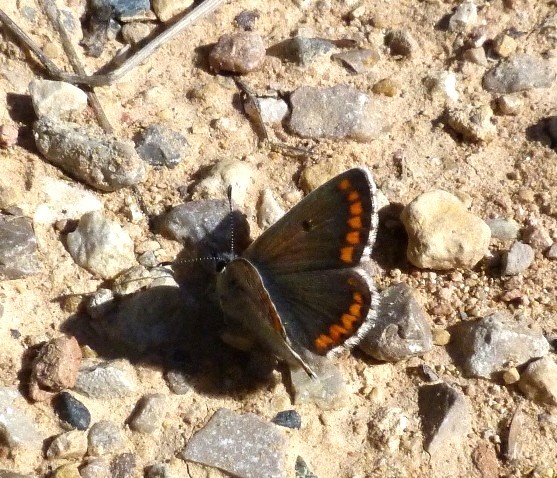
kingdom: Animalia
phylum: Arthropoda
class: Insecta
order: Lepidoptera
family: Lycaenidae
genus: Aricia
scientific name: Aricia cramera
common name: Eschscholtz´s brown  argus
